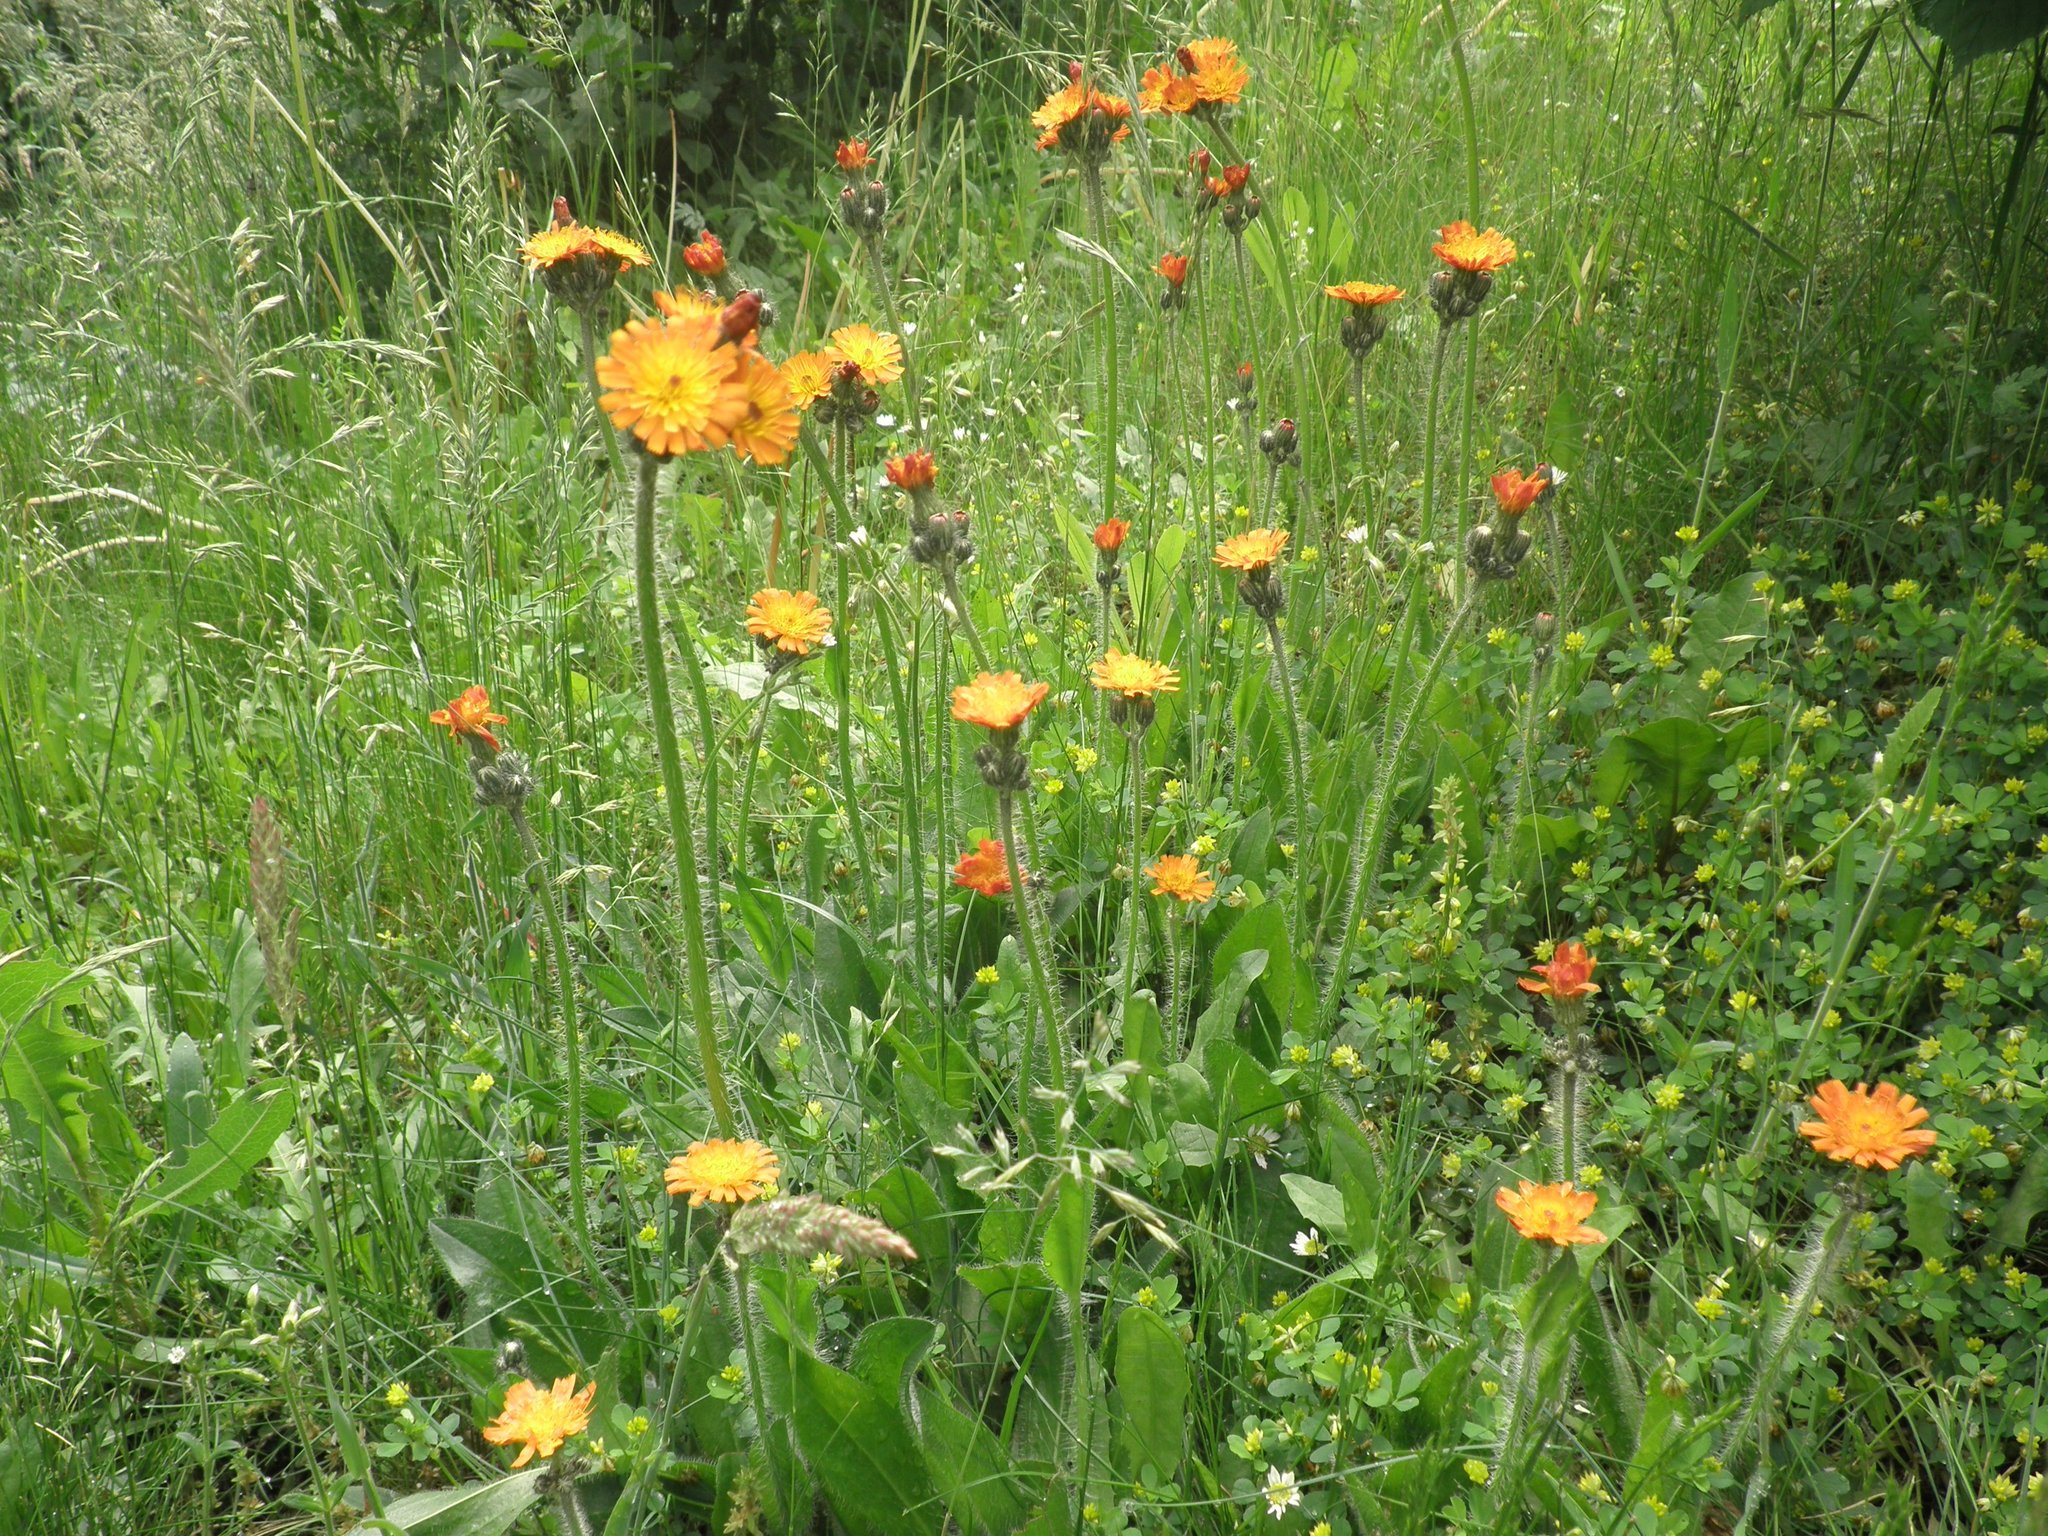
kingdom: Plantae
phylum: Tracheophyta
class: Magnoliopsida
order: Asterales
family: Asteraceae
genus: Pilosella
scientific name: Pilosella aurantiaca
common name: Fox-and-cubs
